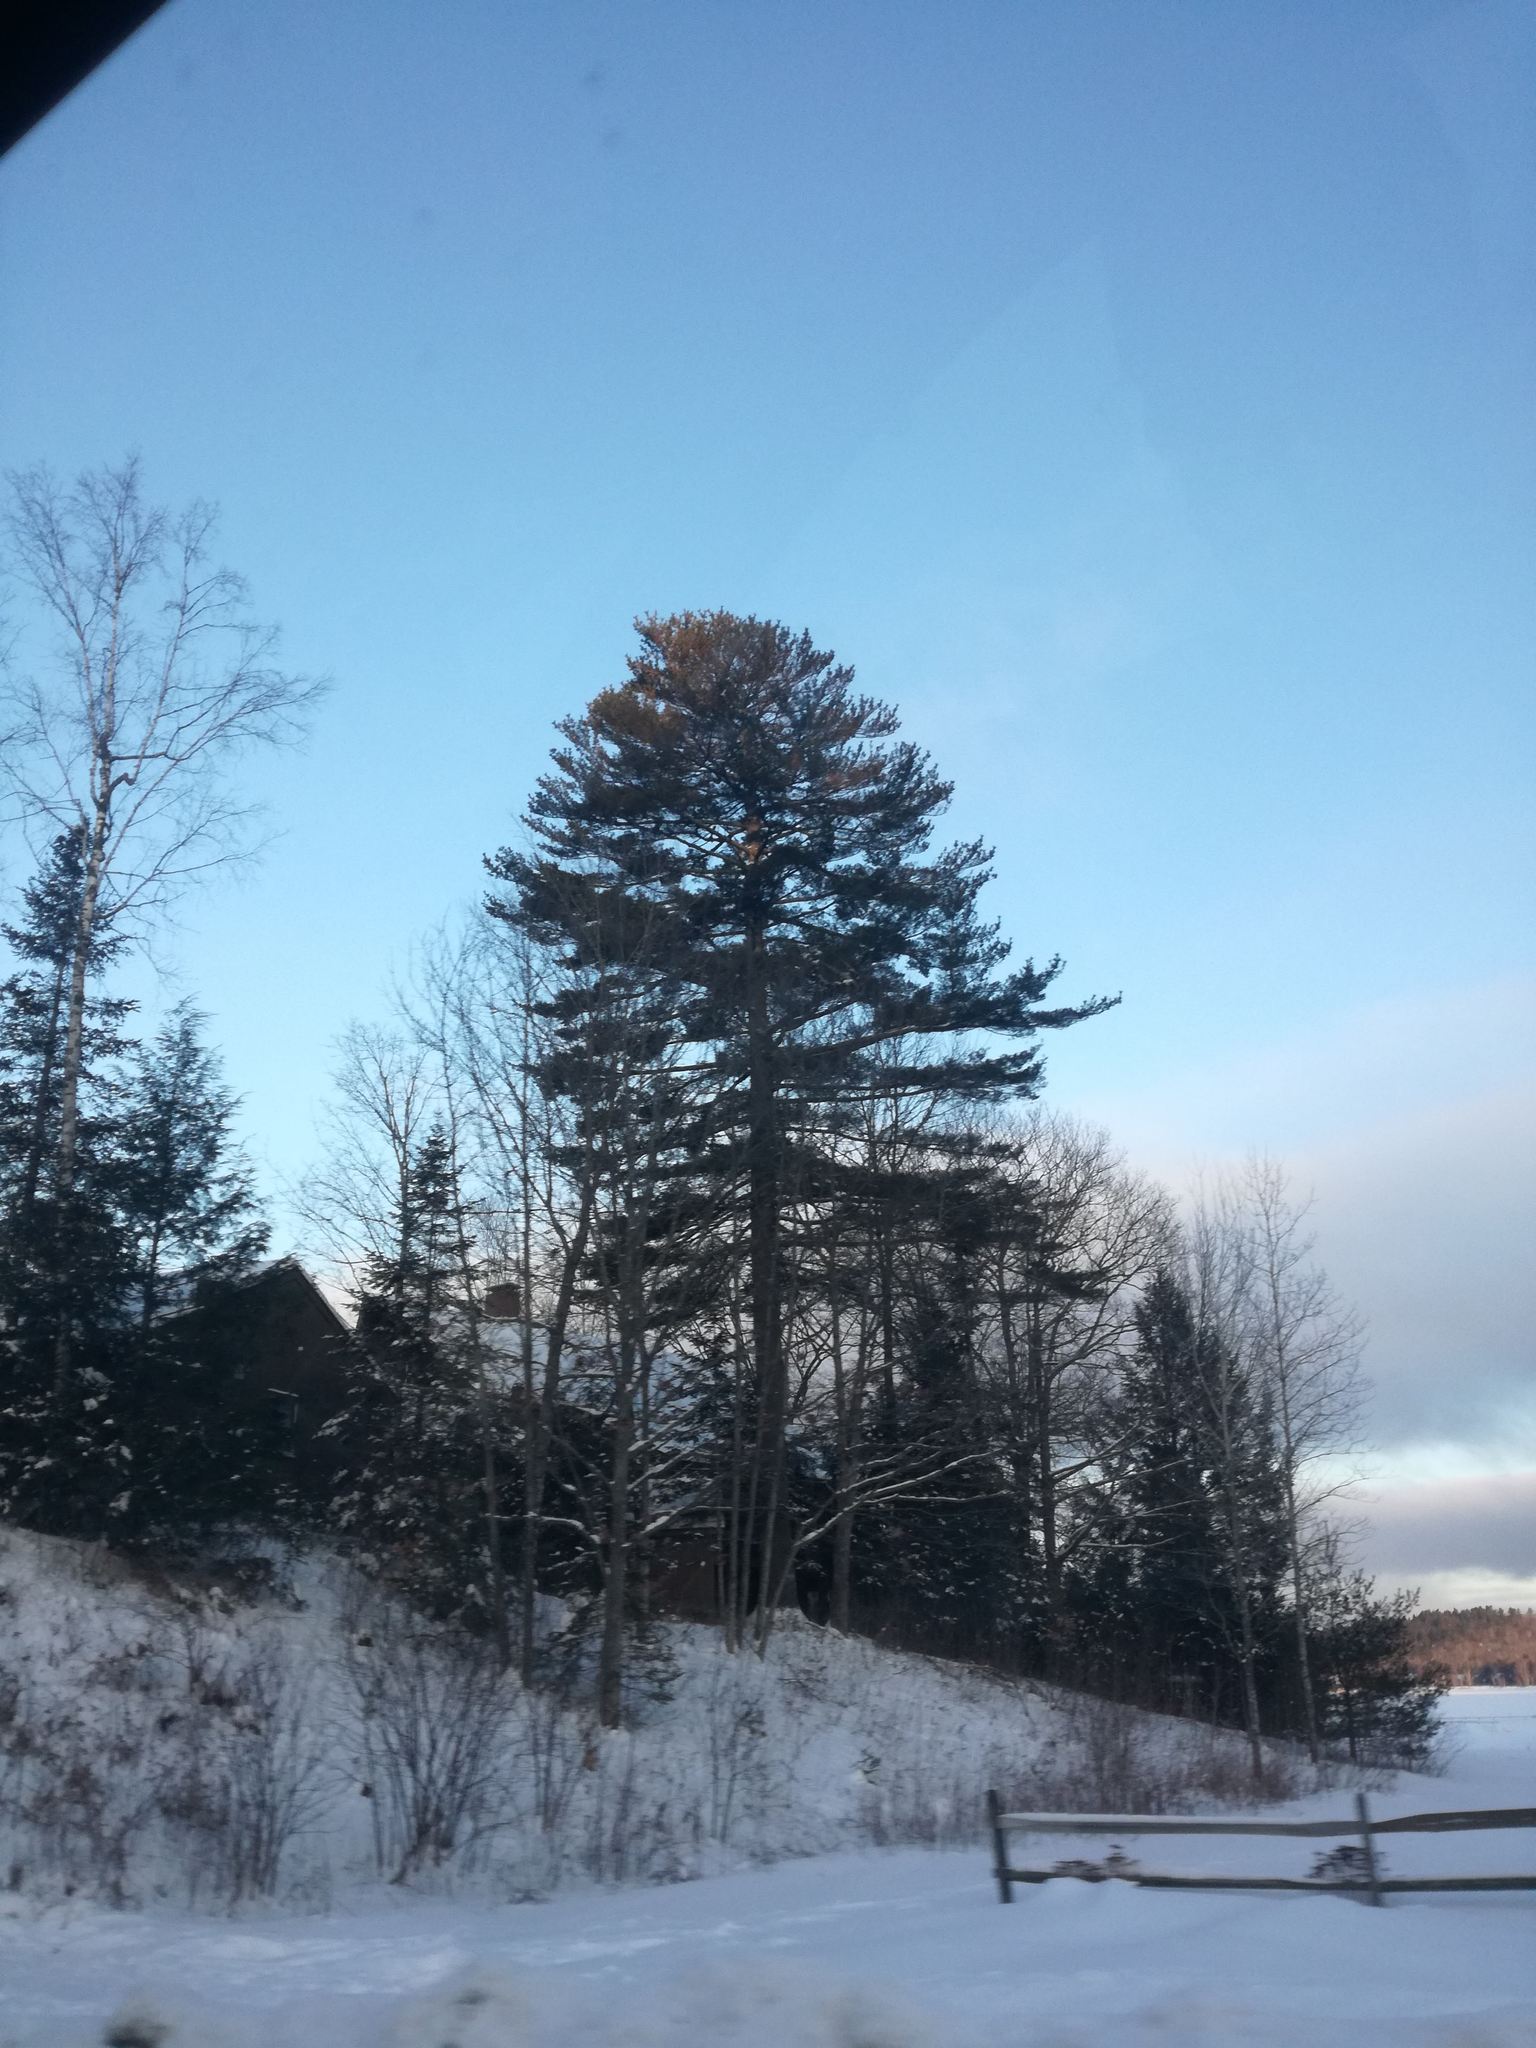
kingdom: Plantae
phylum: Tracheophyta
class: Pinopsida
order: Pinales
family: Pinaceae
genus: Pinus
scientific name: Pinus strobus
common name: Weymouth pine
